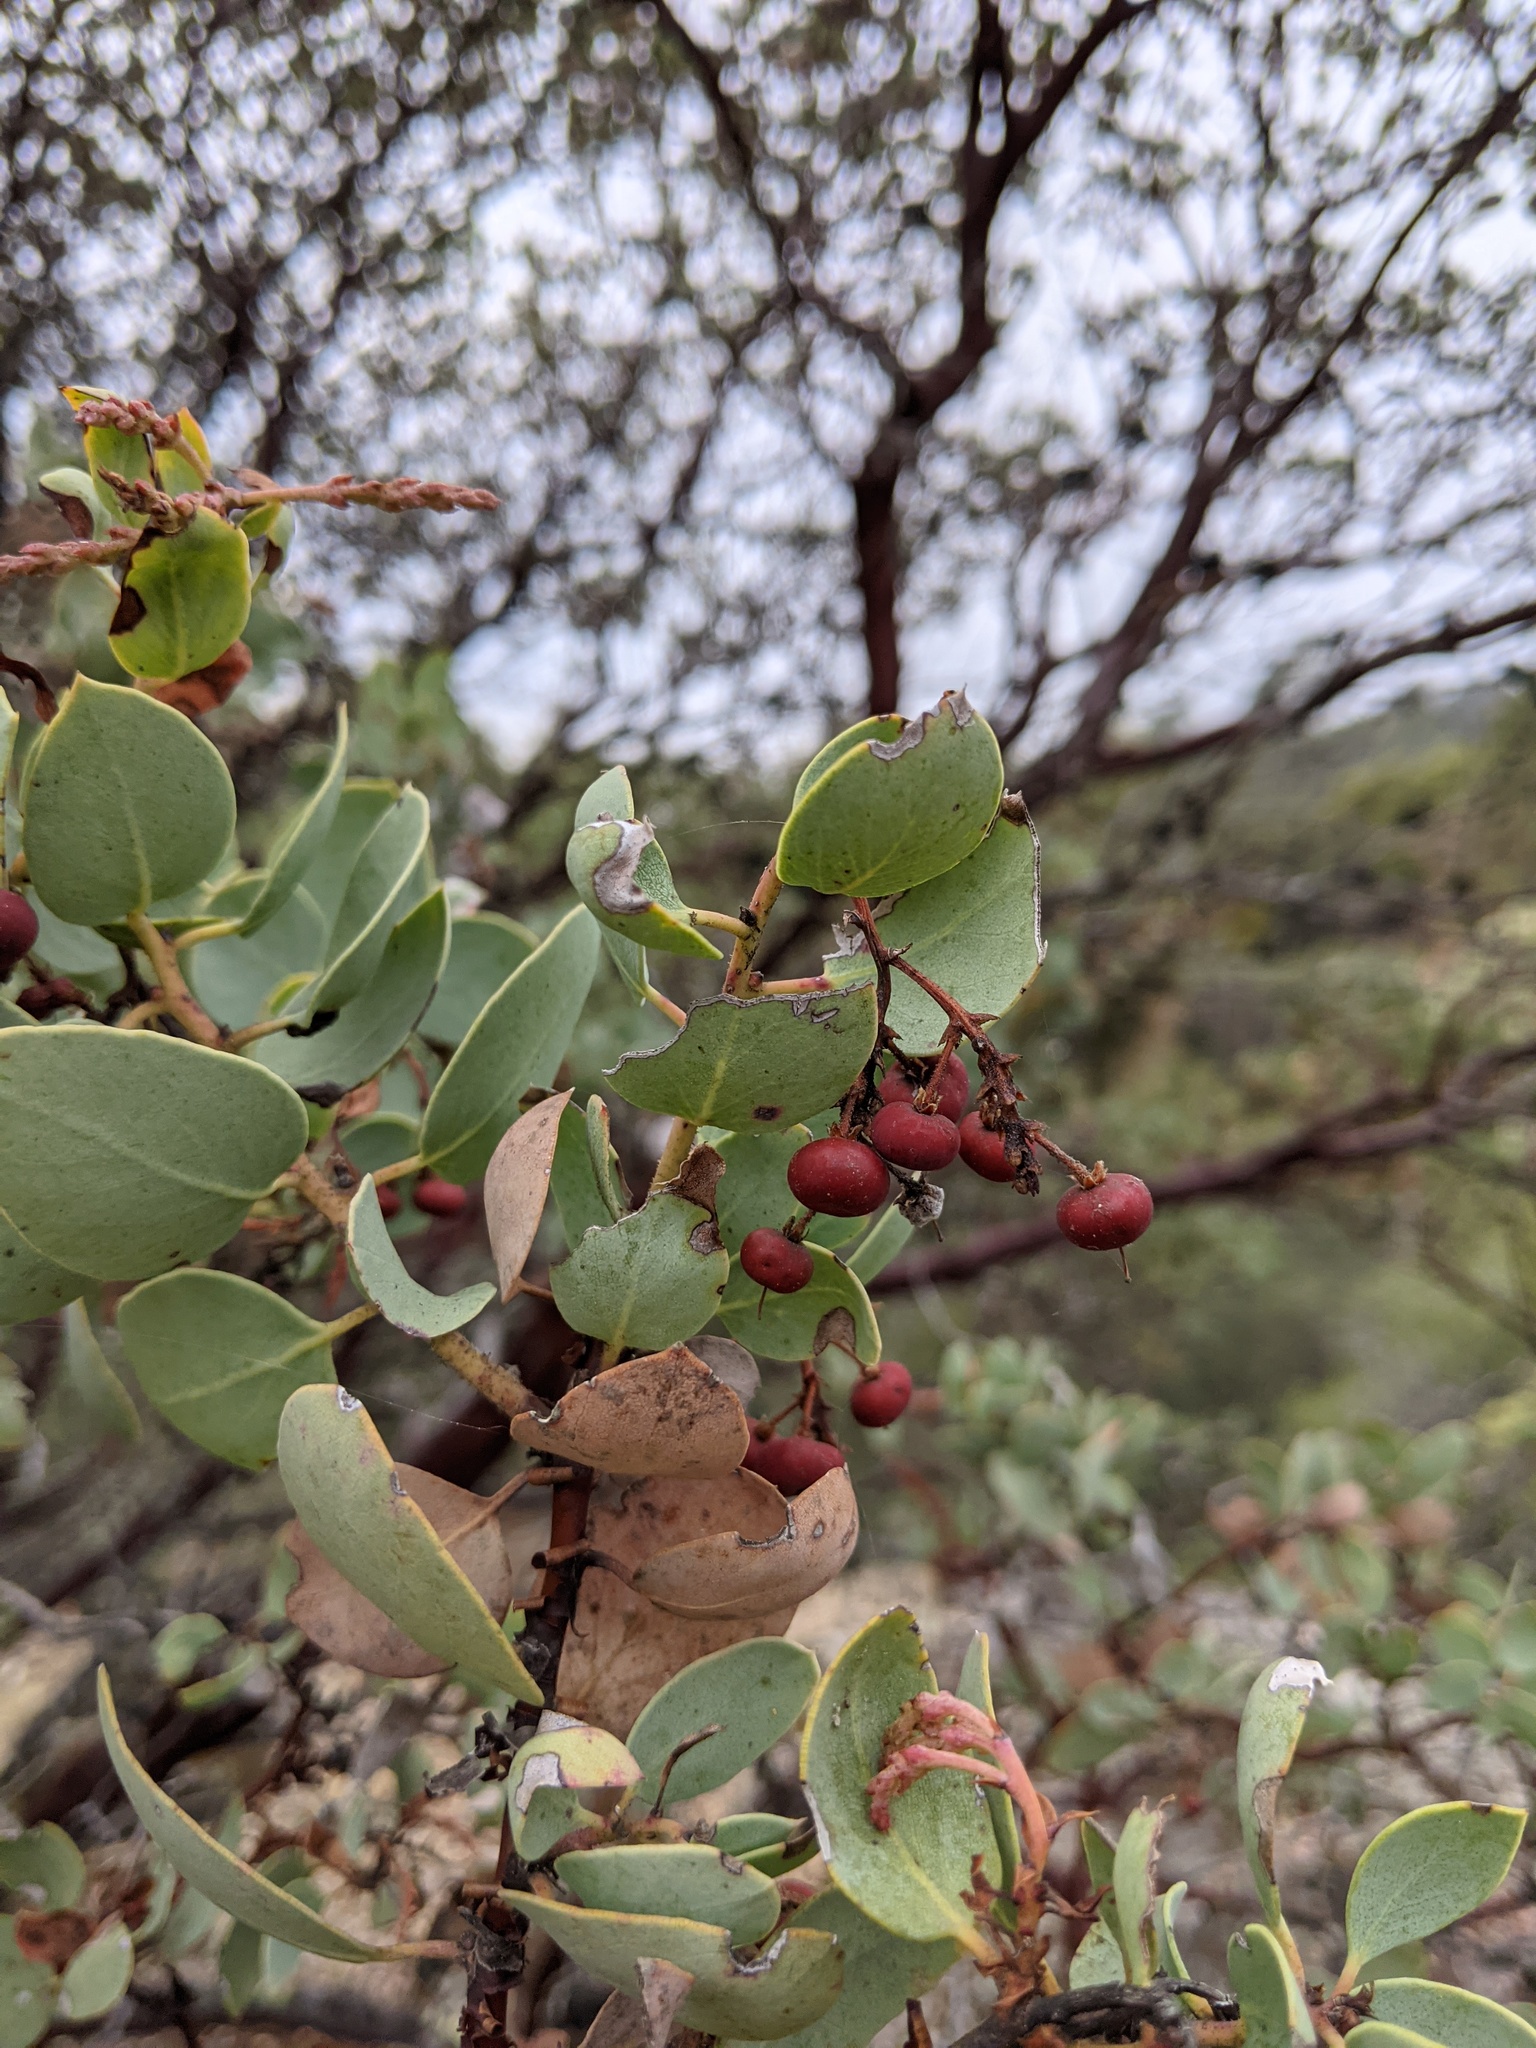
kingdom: Plantae
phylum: Tracheophyta
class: Magnoliopsida
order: Ericales
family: Ericaceae
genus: Arctostaphylos
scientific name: Arctostaphylos viscida
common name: White-leaf manzanita
